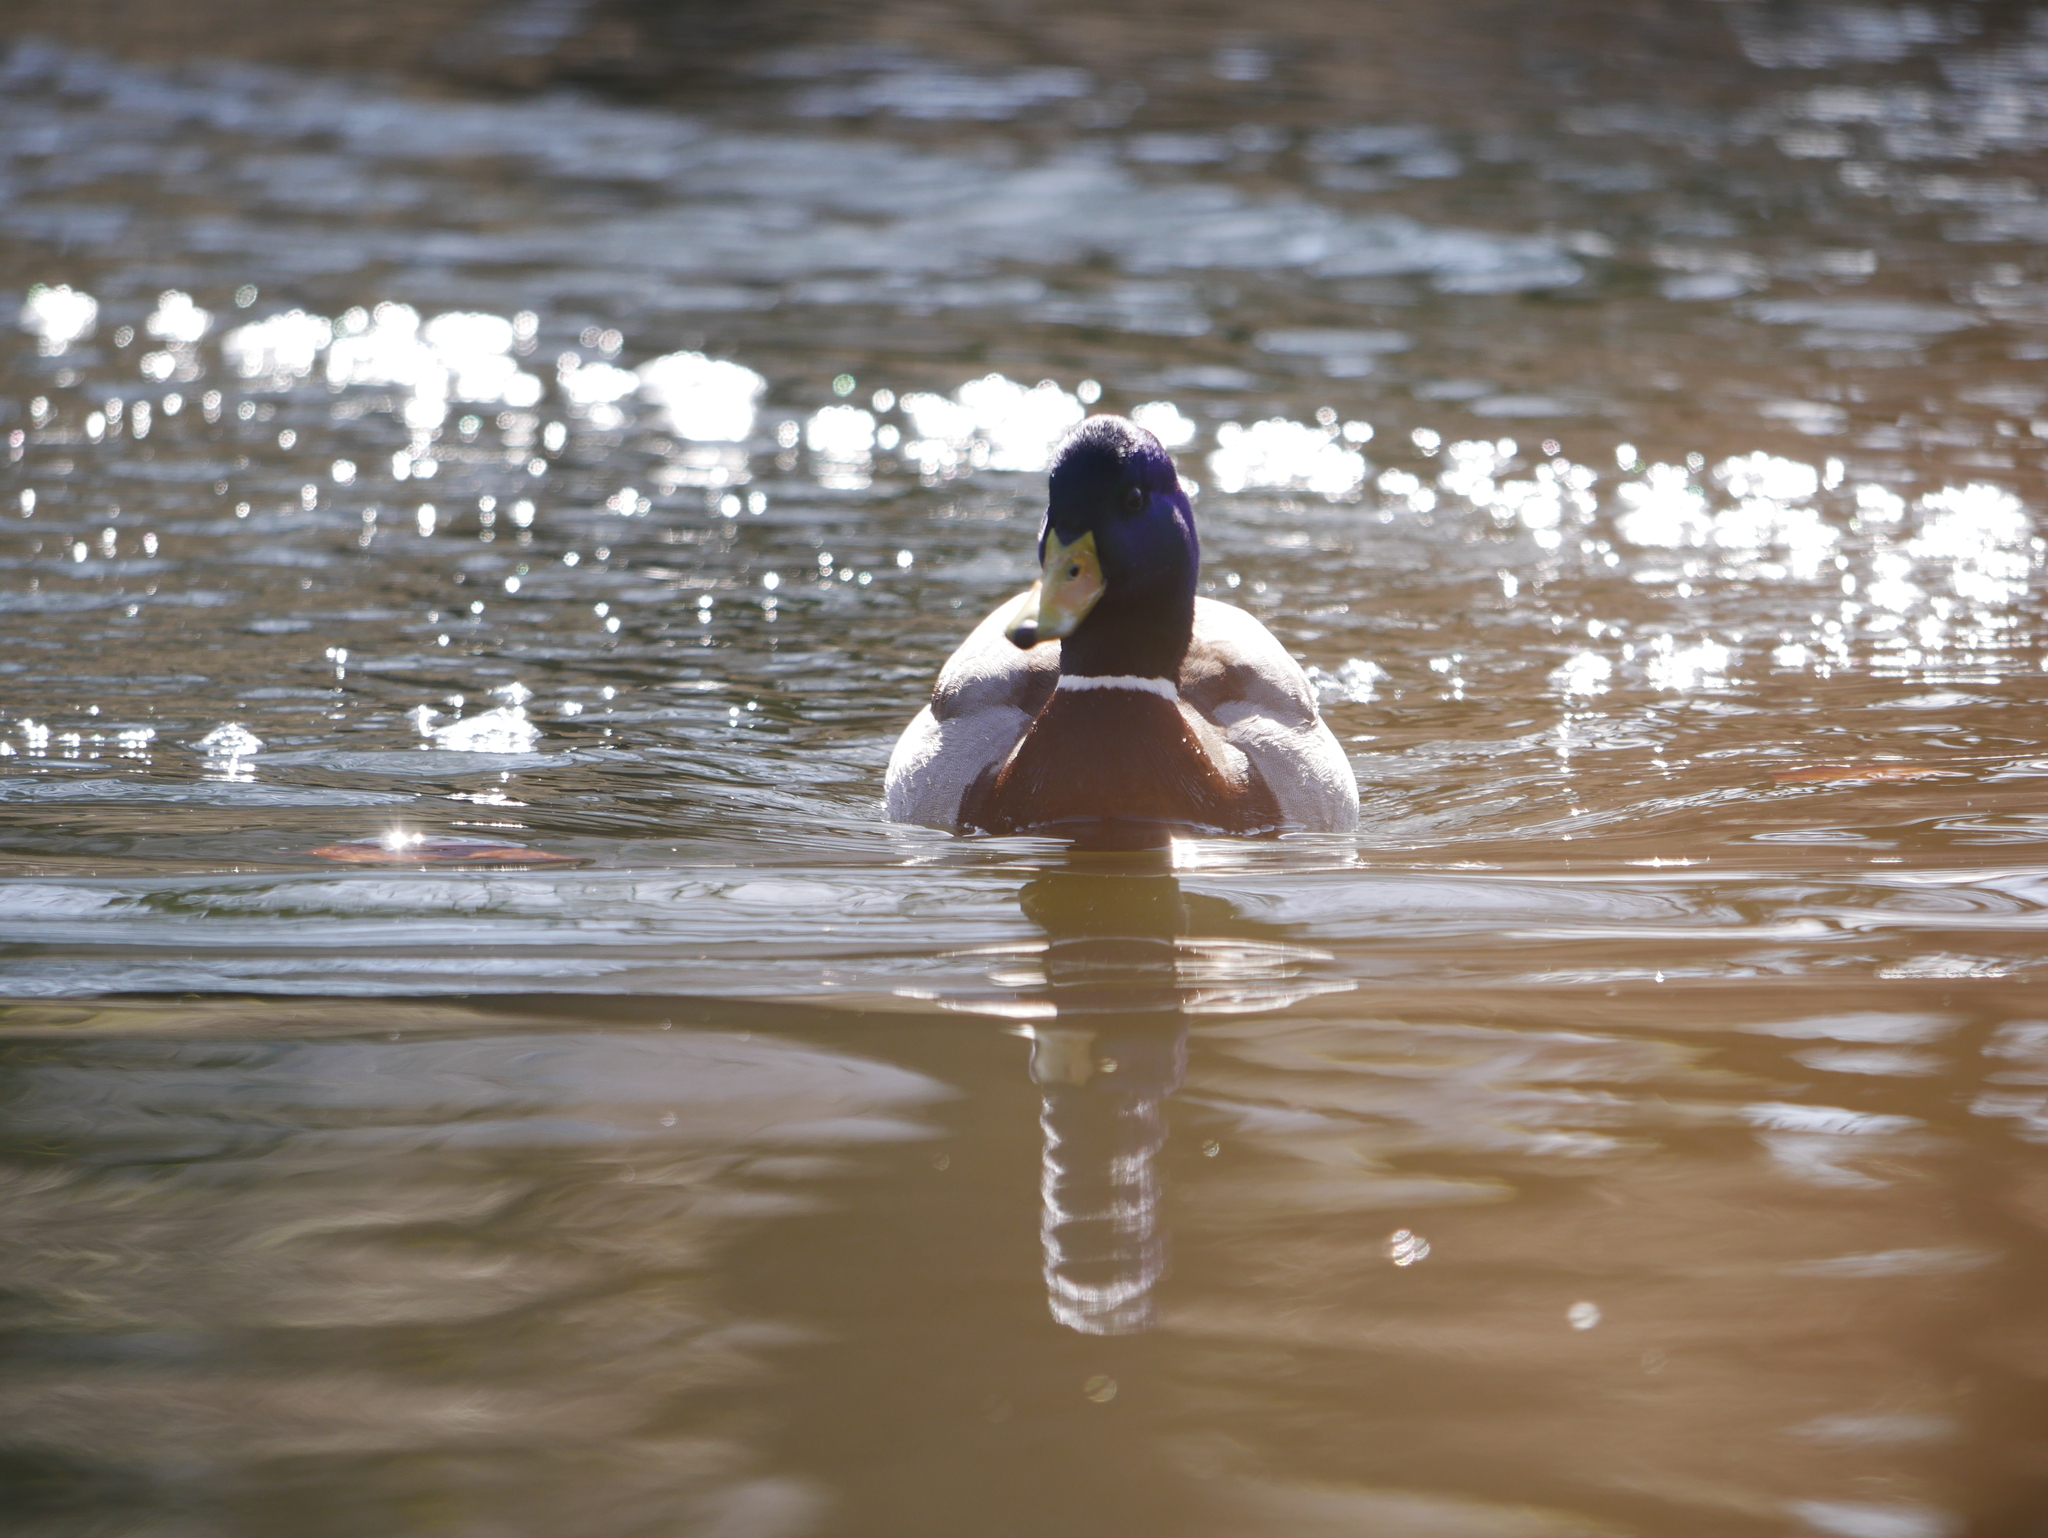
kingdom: Animalia
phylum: Chordata
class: Aves
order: Anseriformes
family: Anatidae
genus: Anas
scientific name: Anas platyrhynchos
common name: Mallard
